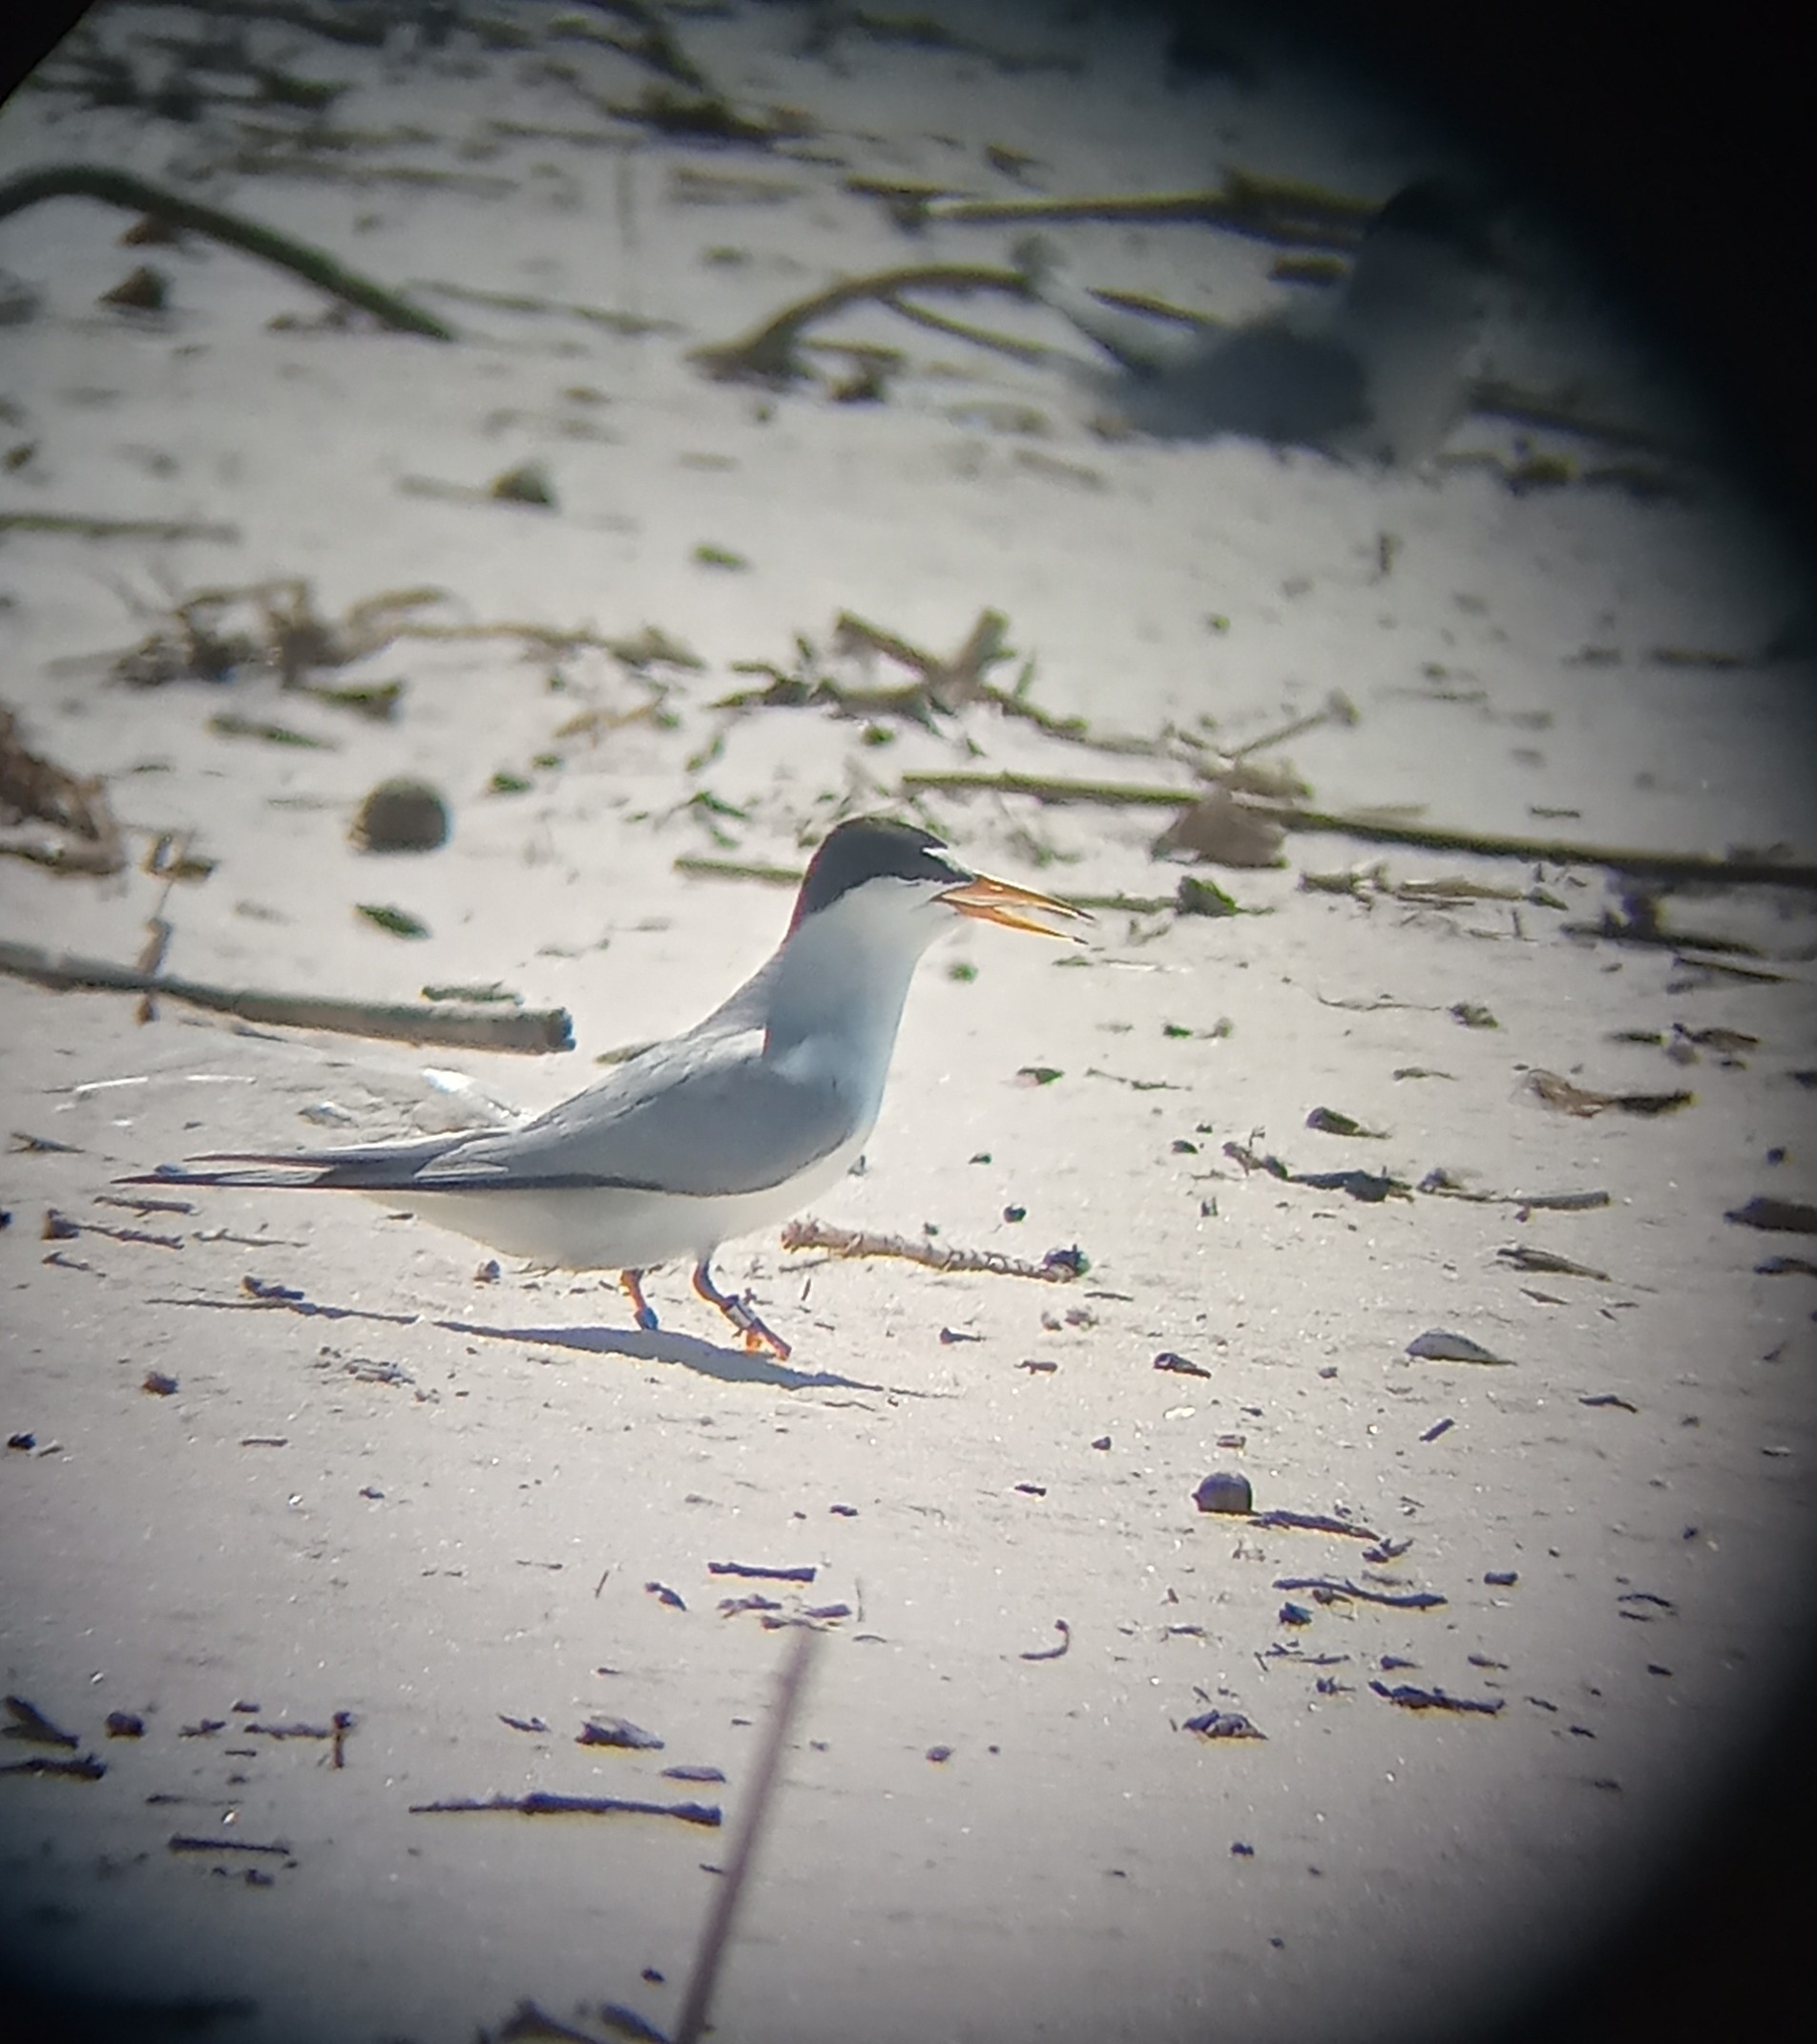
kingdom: Animalia
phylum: Chordata
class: Aves
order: Charadriiformes
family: Laridae
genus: Sternula
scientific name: Sternula antillarum
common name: Least tern
